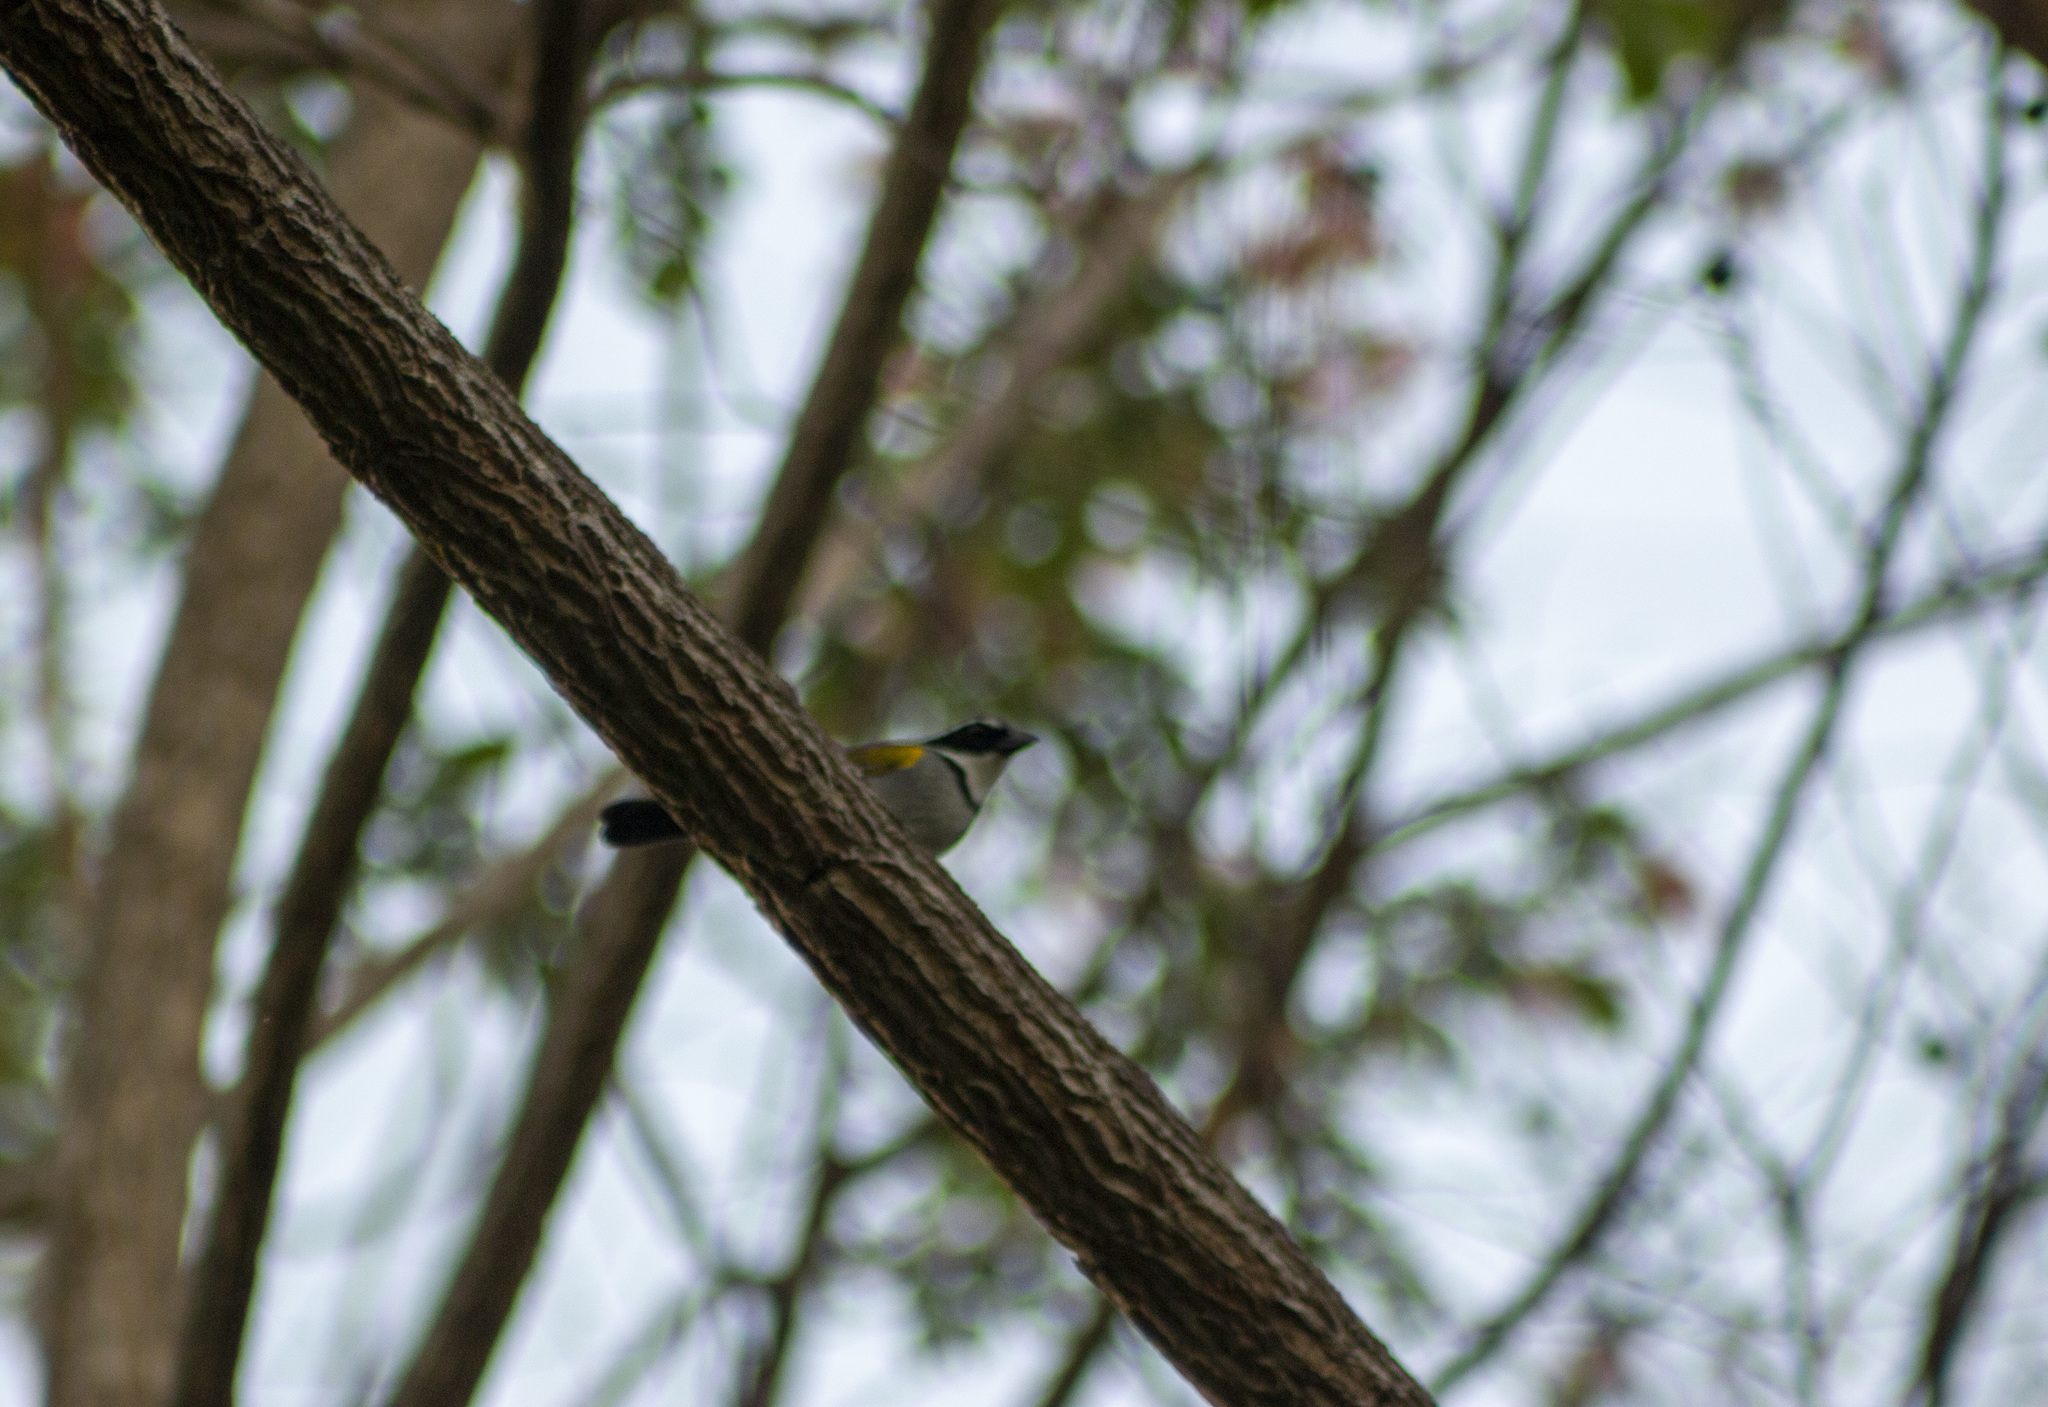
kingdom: Animalia
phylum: Chordata
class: Aves
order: Passeriformes
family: Passerellidae
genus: Arremon
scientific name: Arremon taciturnus
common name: Pectoral sparrow
